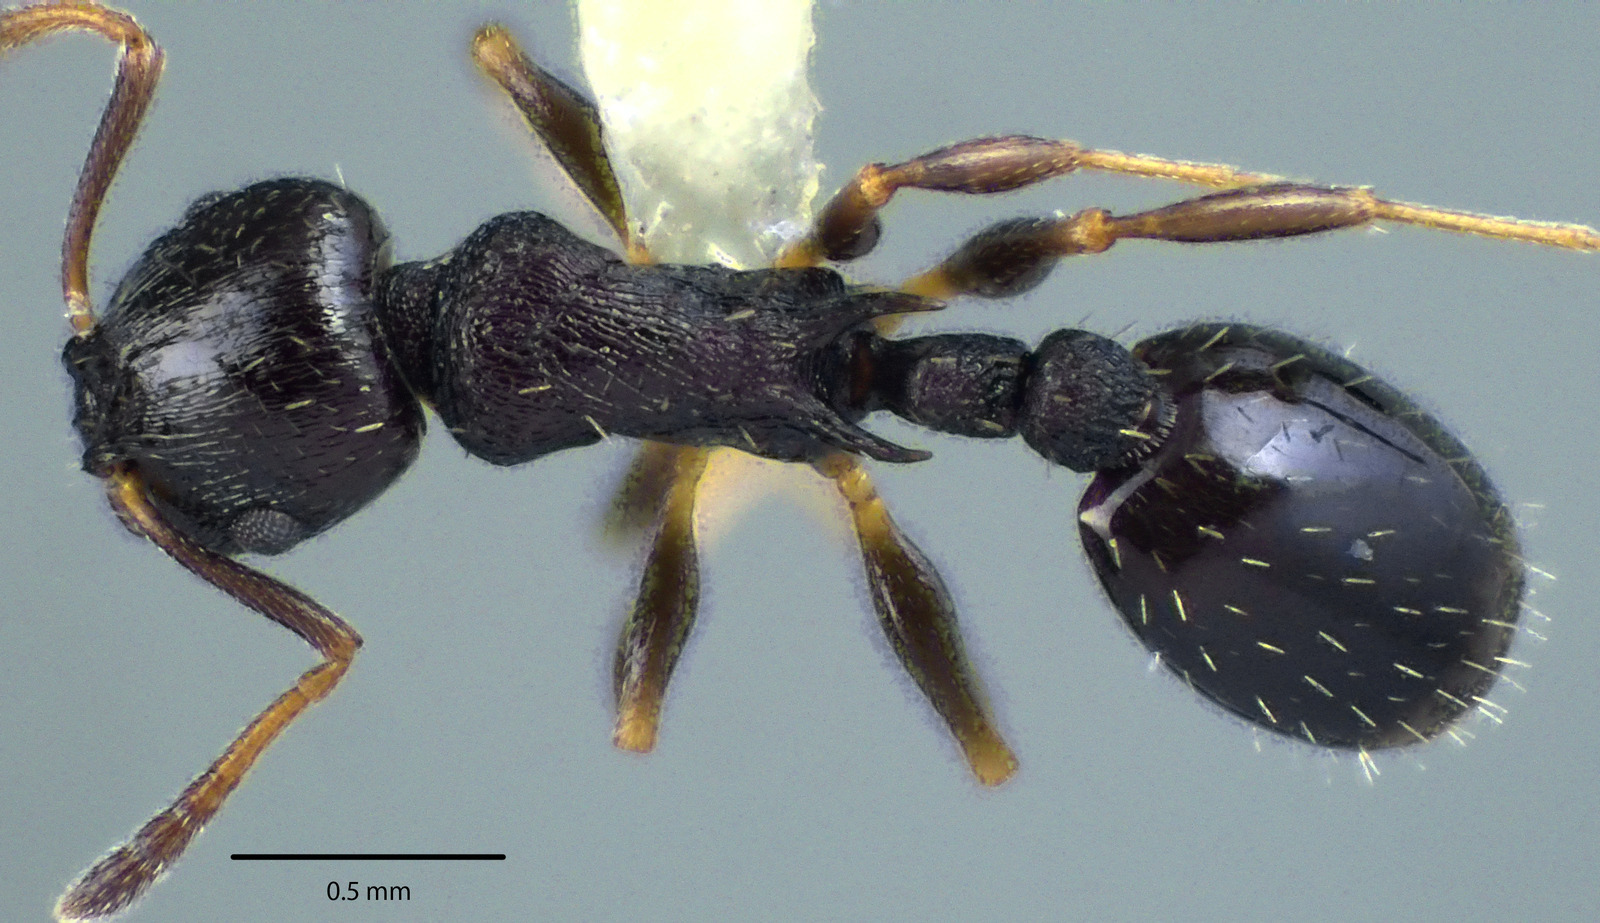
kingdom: Animalia
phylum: Arthropoda
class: Insecta
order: Hymenoptera
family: Formicidae
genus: Temnothorax
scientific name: Temnothorax longispinosus
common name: Long-spined acorn ant
